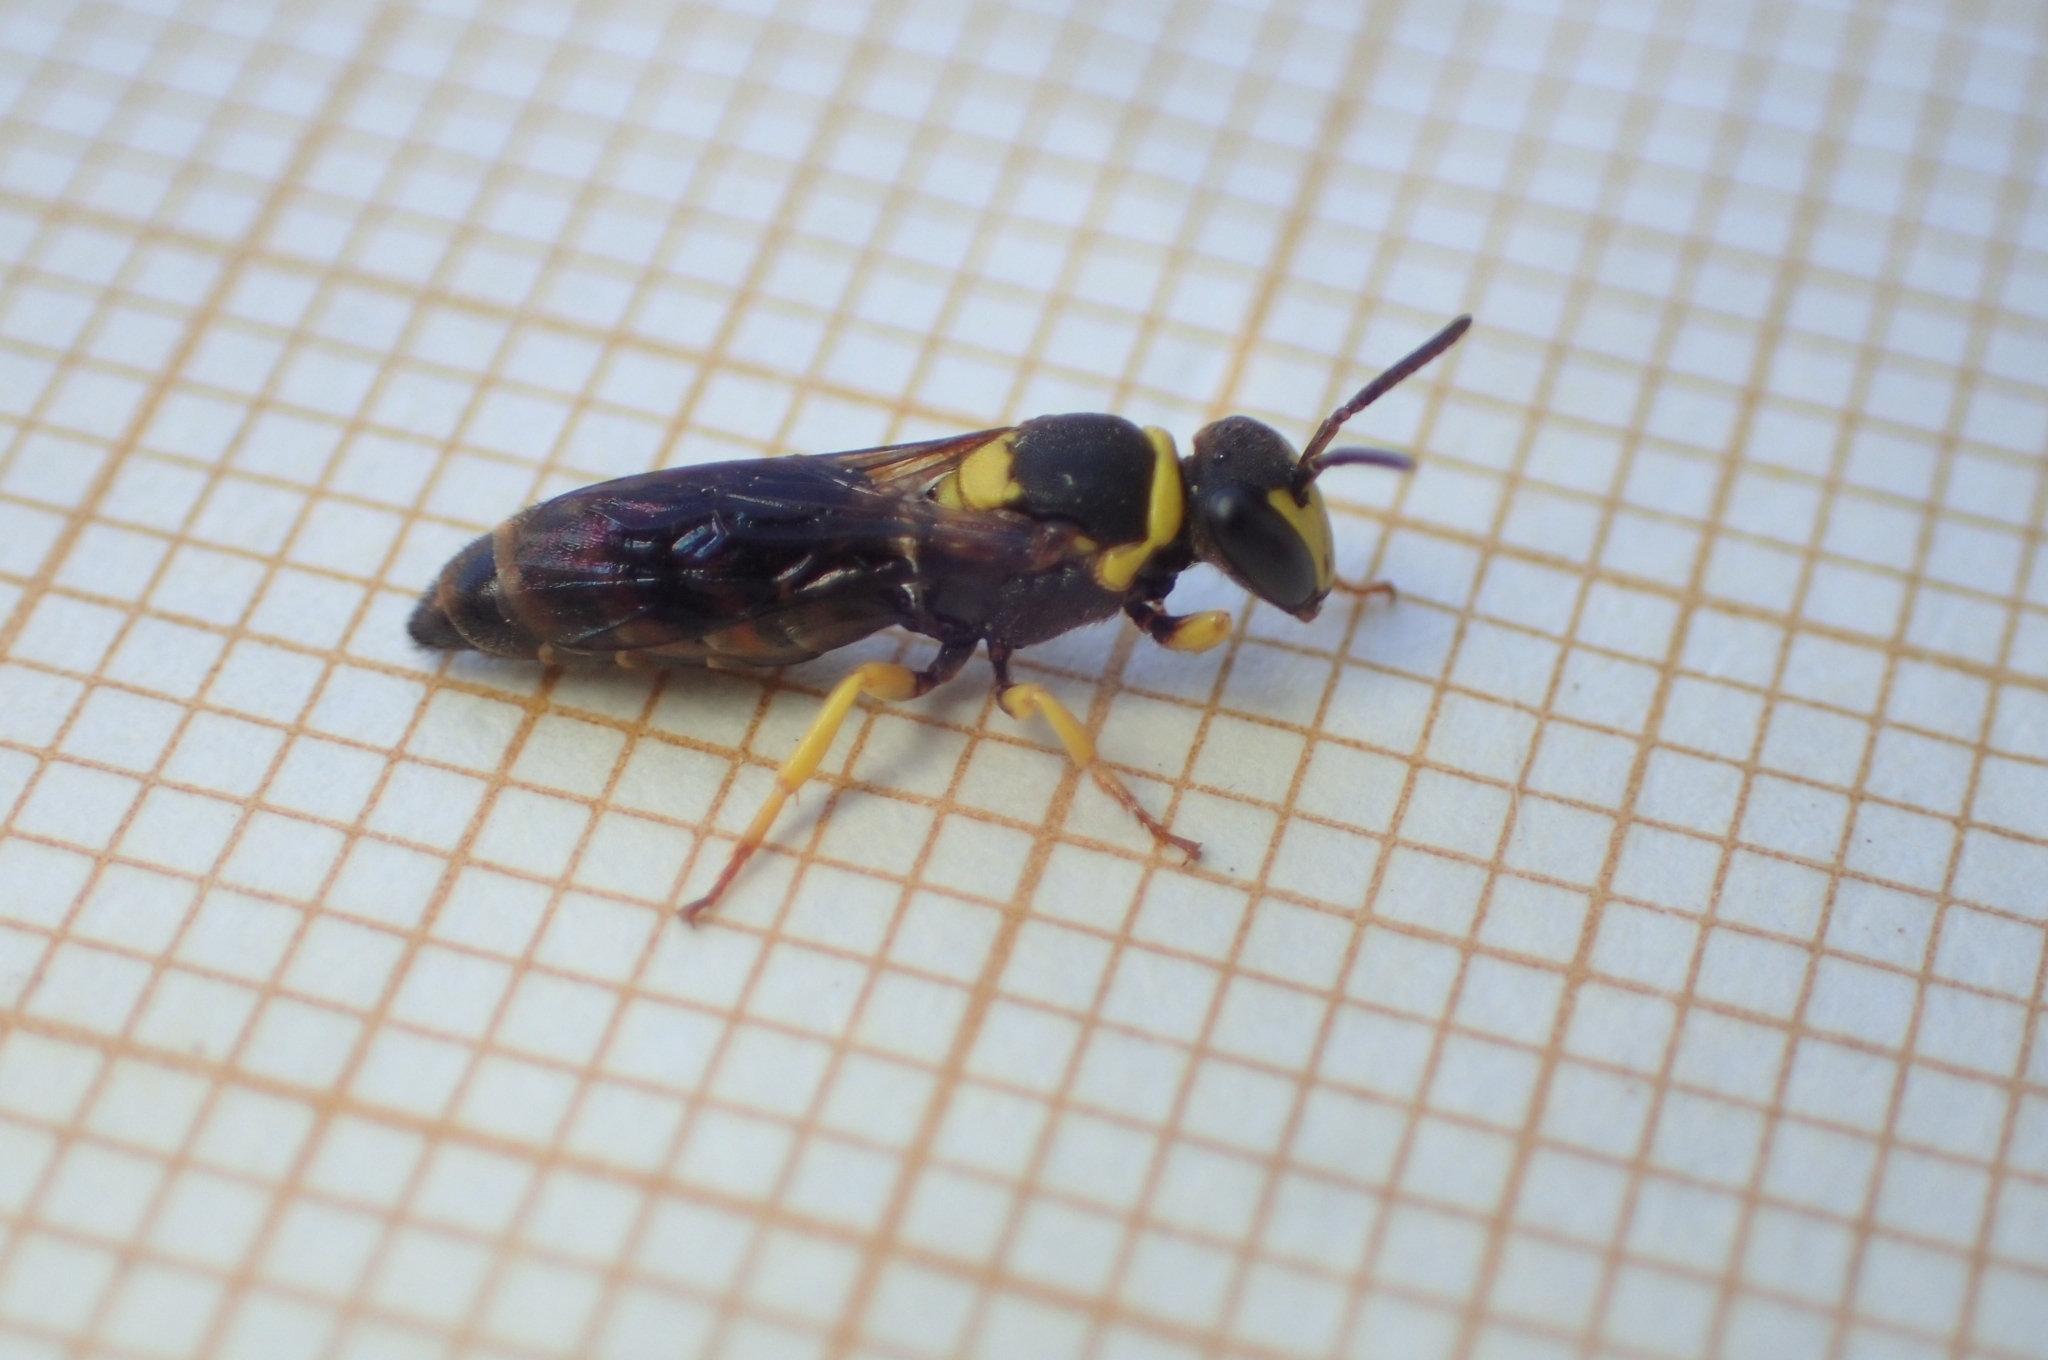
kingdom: Animalia
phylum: Arthropoda
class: Insecta
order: Hymenoptera
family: Colletidae
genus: Hylaeus
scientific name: Hylaeus pictus
